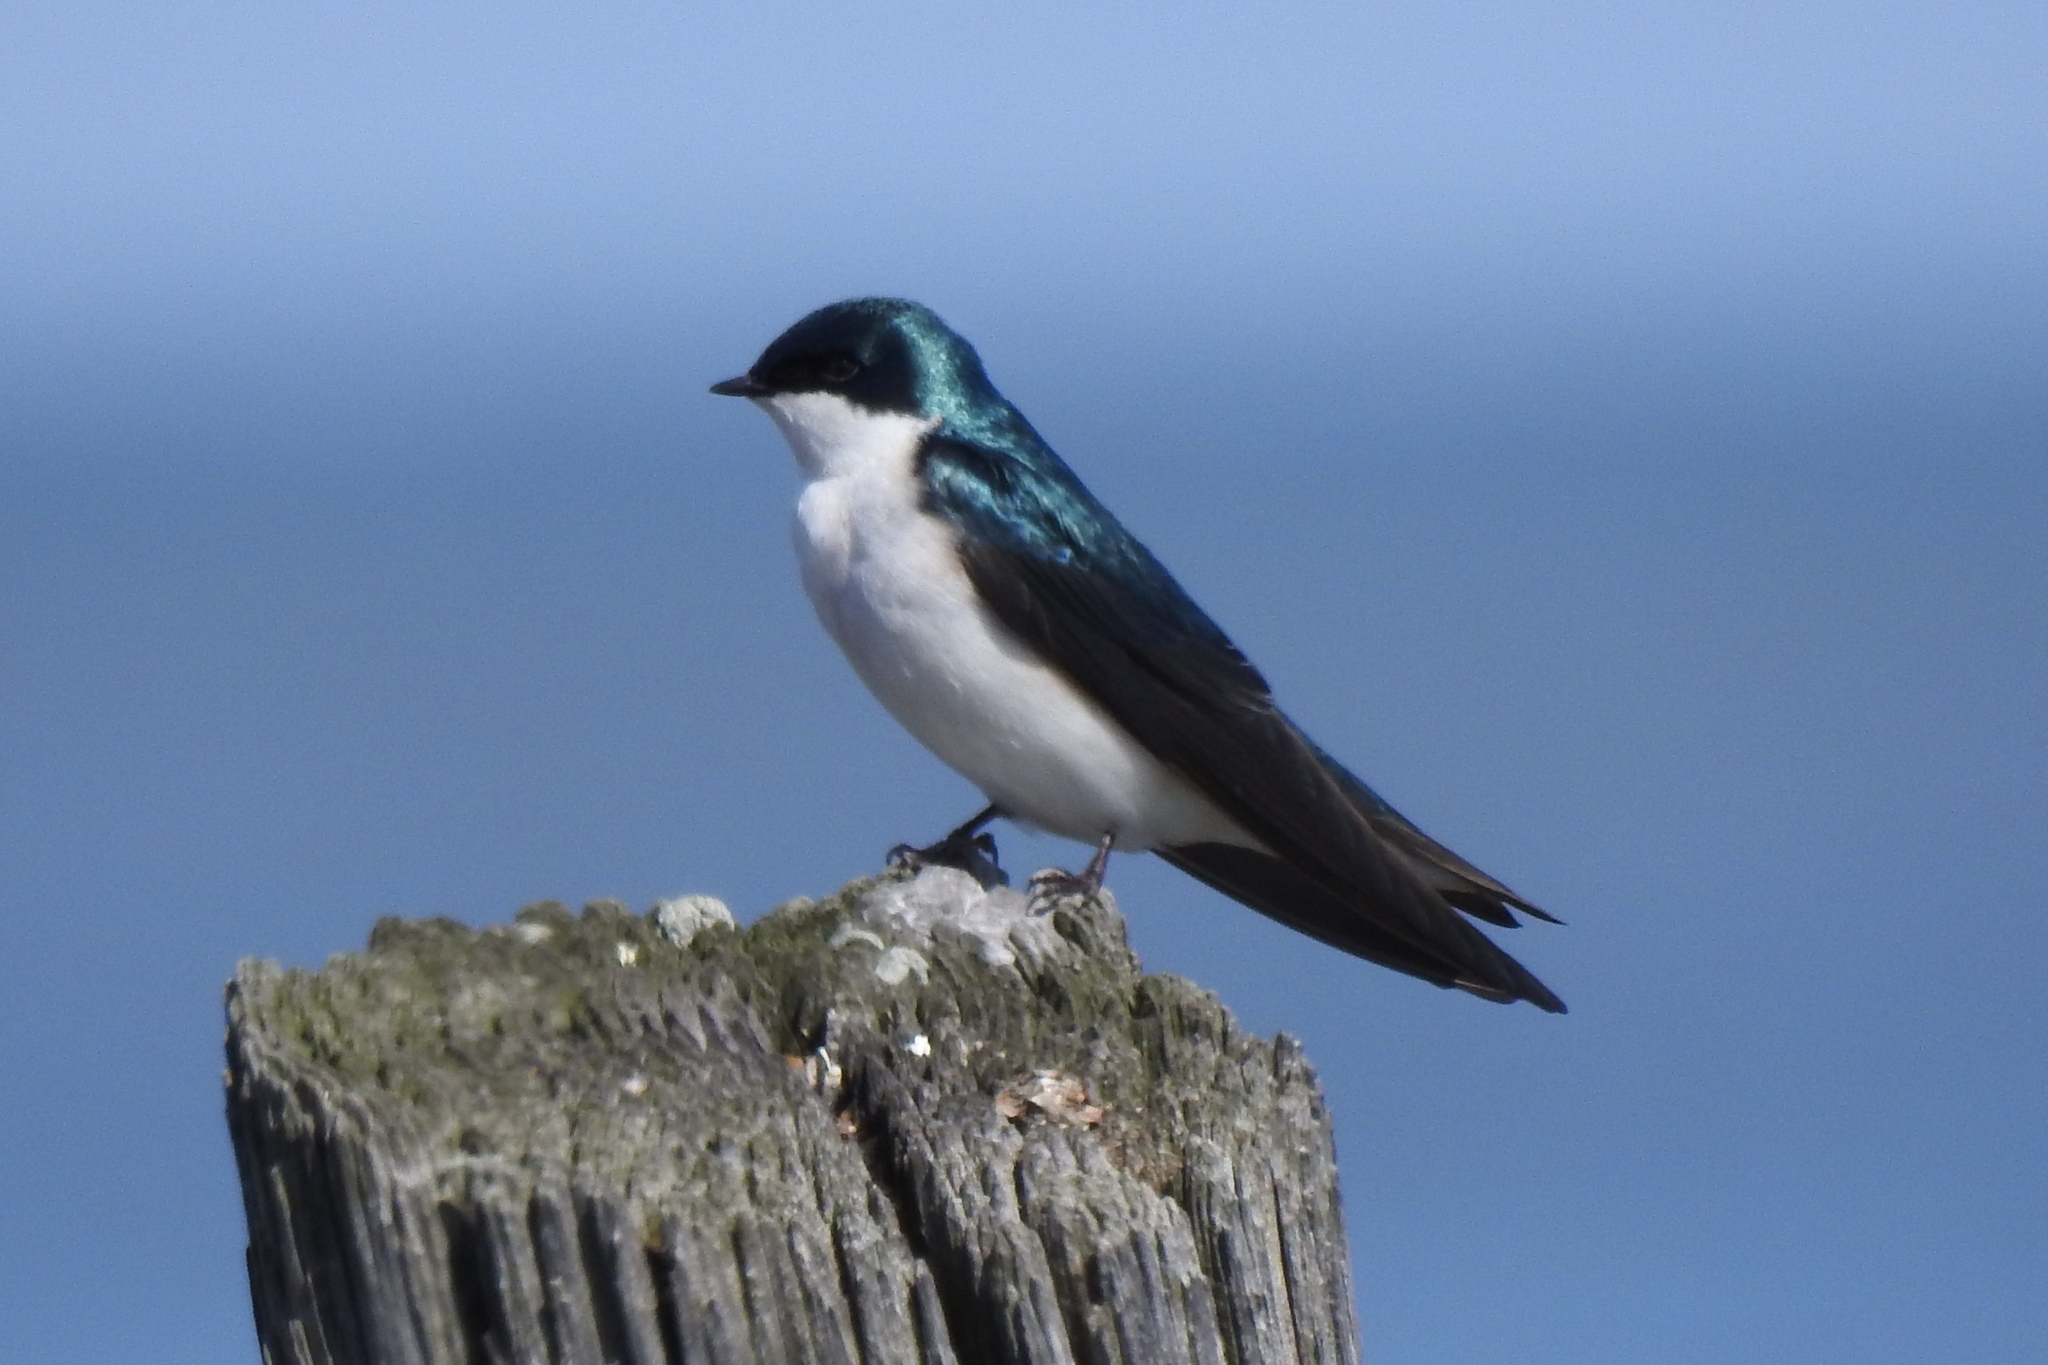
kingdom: Animalia
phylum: Chordata
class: Aves
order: Passeriformes
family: Hirundinidae
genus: Tachycineta
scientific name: Tachycineta bicolor
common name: Tree swallow
